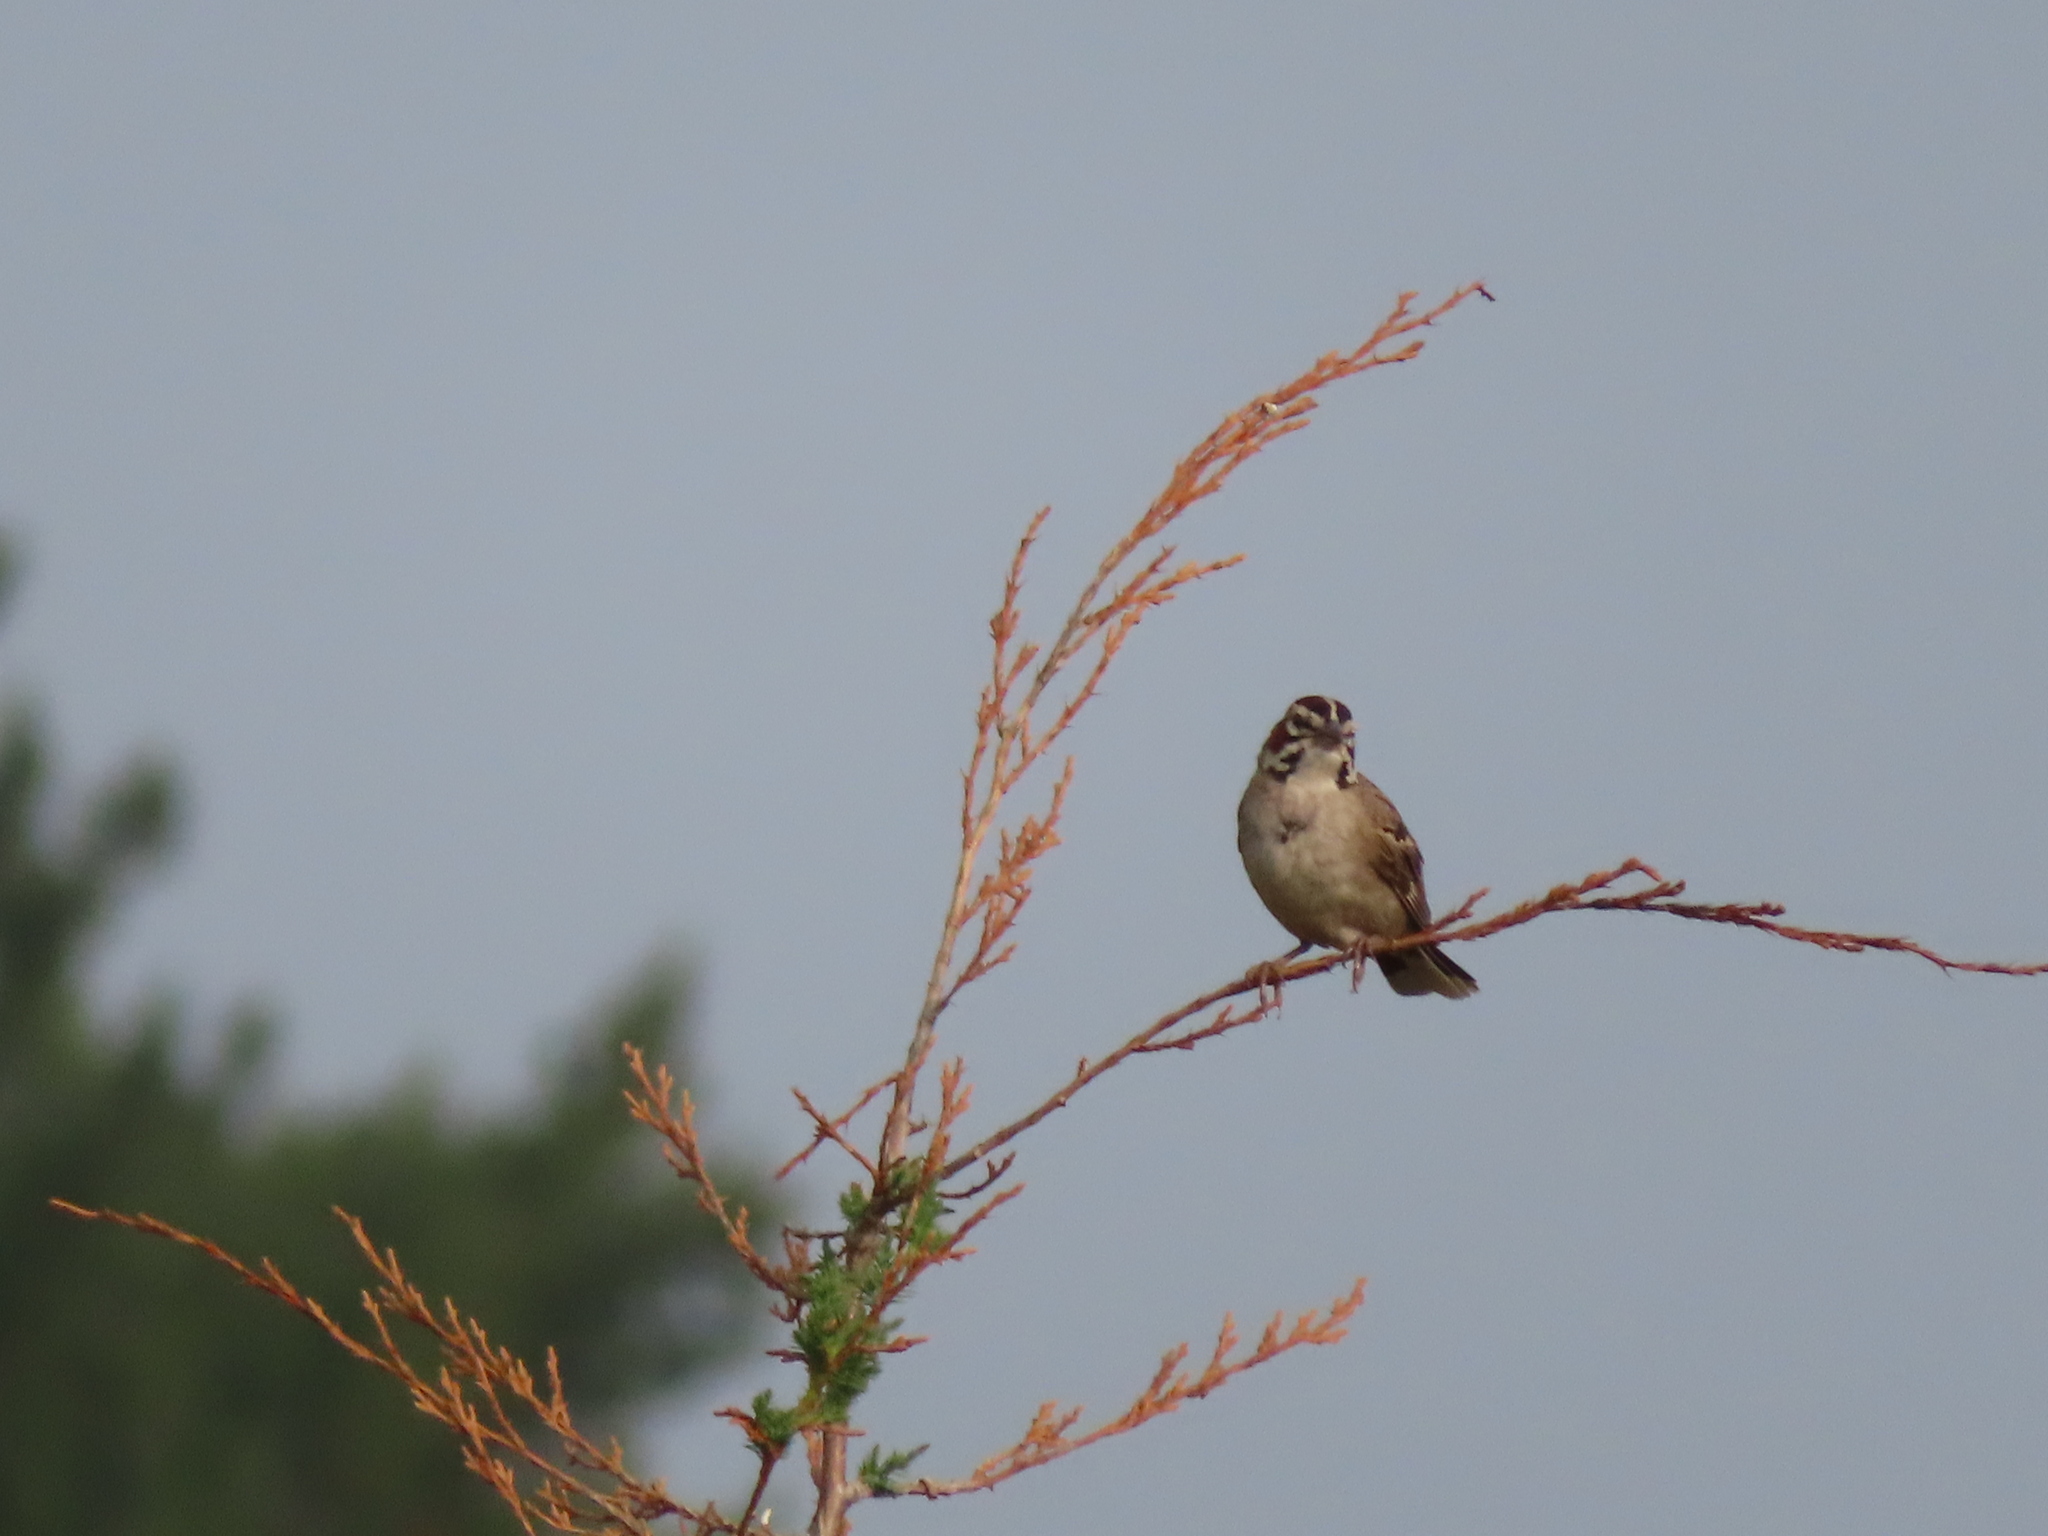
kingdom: Animalia
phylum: Chordata
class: Aves
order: Passeriformes
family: Passerellidae
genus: Chondestes
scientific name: Chondestes grammacus
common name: Lark sparrow
